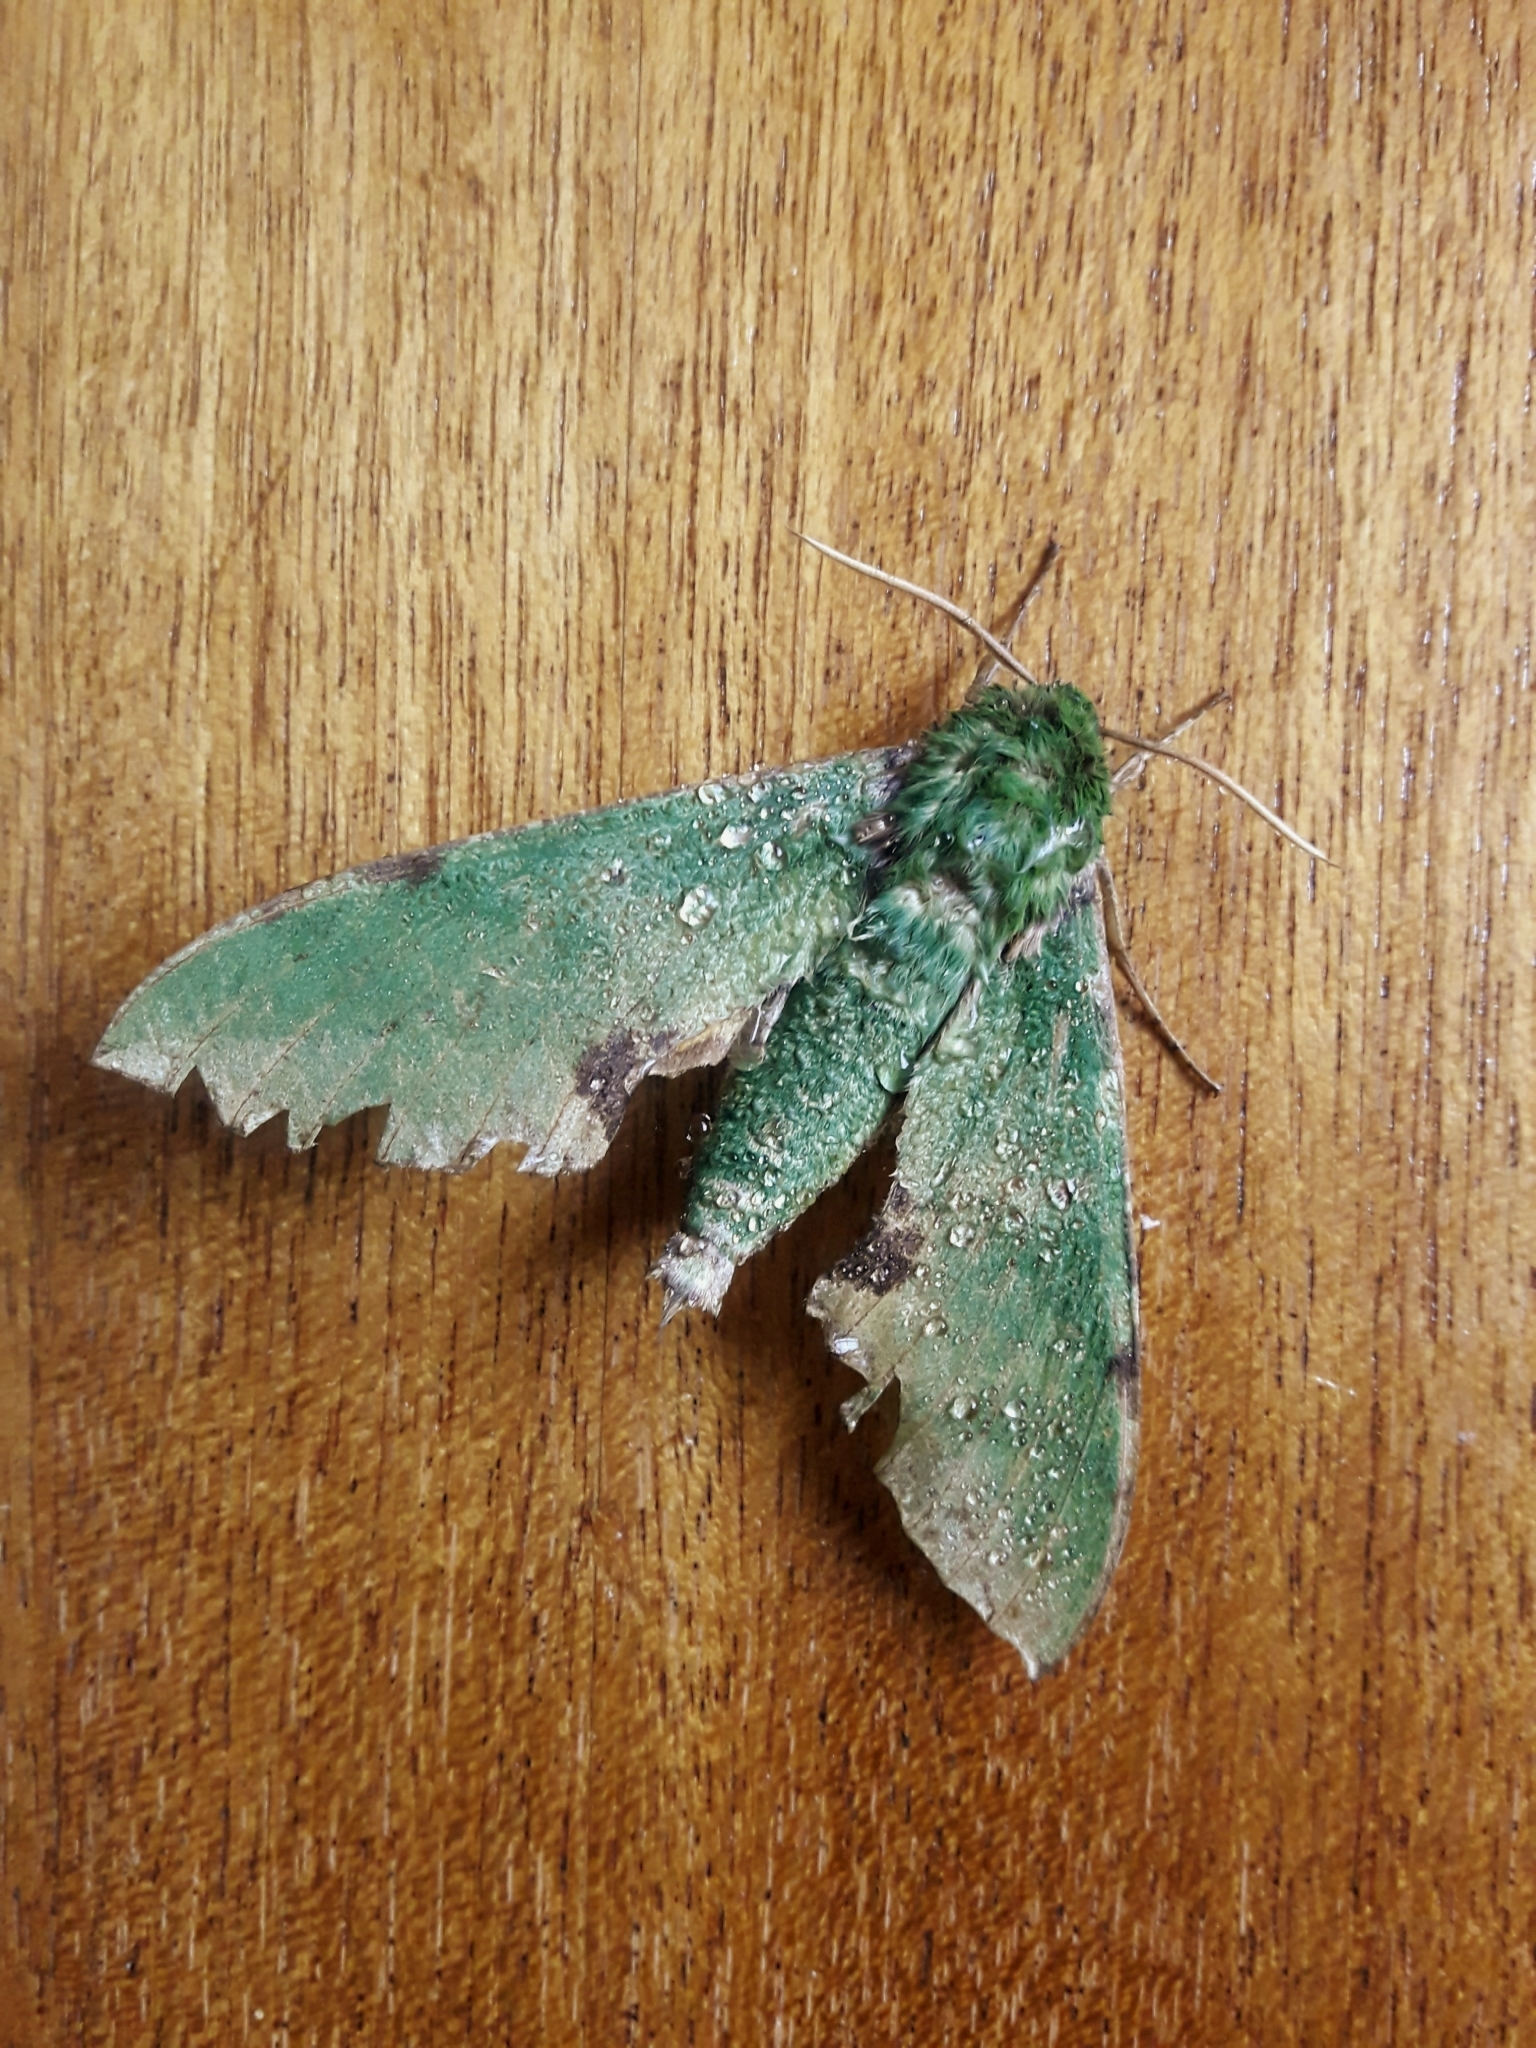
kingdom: Animalia
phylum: Arthropoda
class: Insecta
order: Lepidoptera
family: Sphingidae
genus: Euchloron
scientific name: Euchloron megaera
